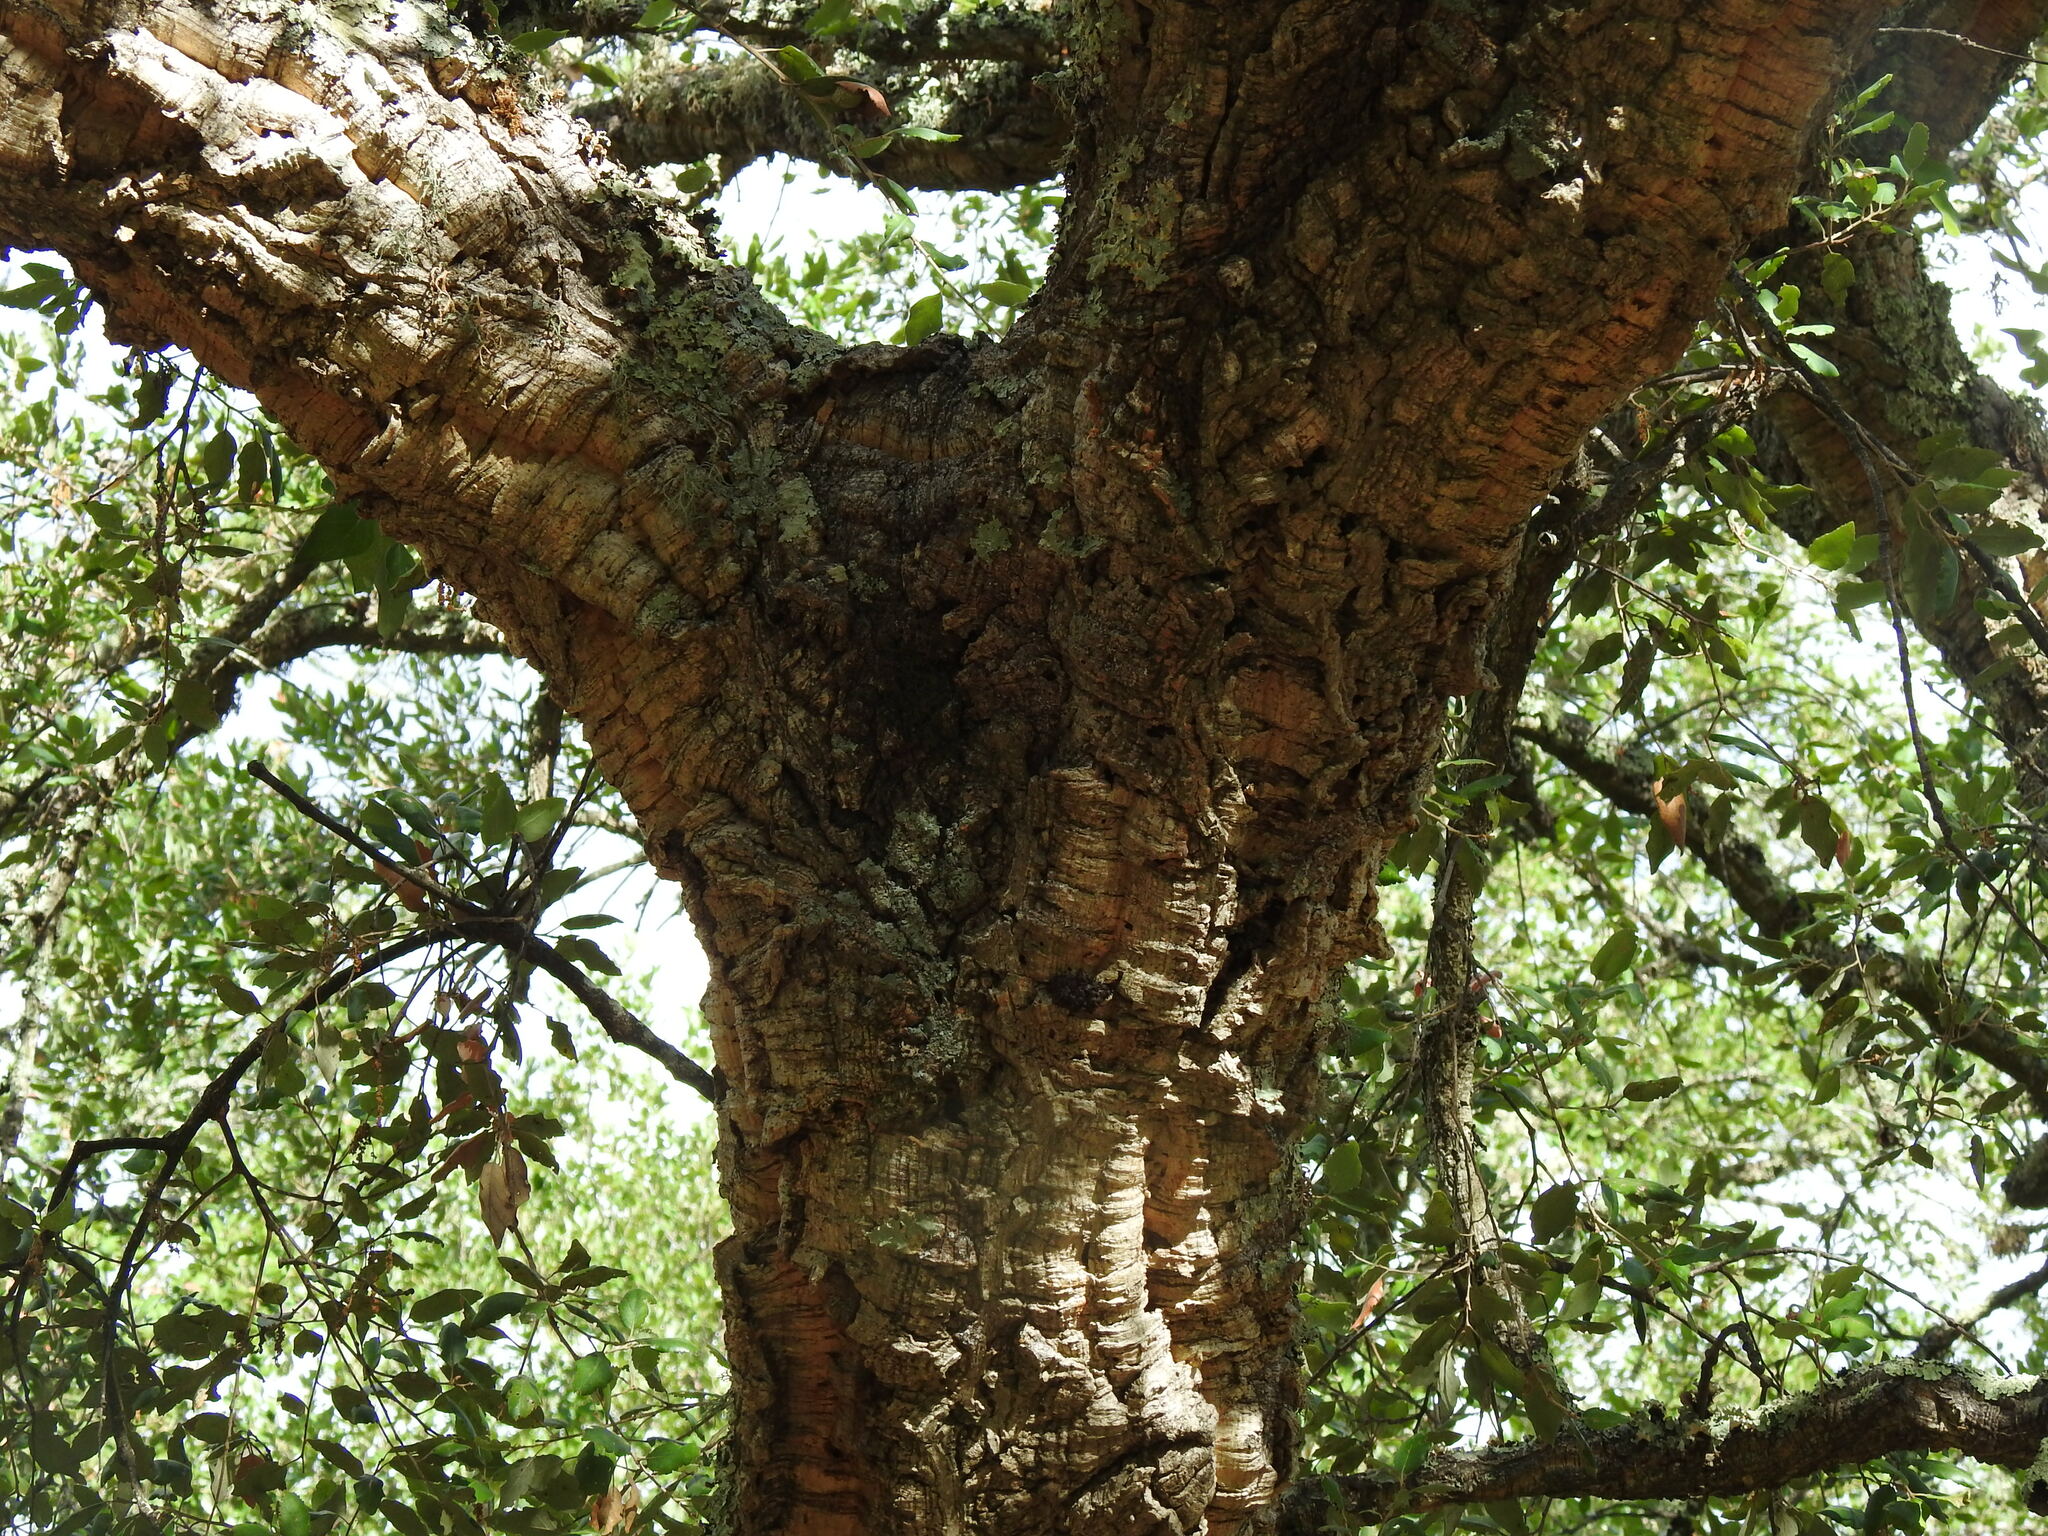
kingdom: Plantae
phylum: Tracheophyta
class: Magnoliopsida
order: Fagales
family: Fagaceae
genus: Quercus
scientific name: Quercus suber
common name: Cork oak
